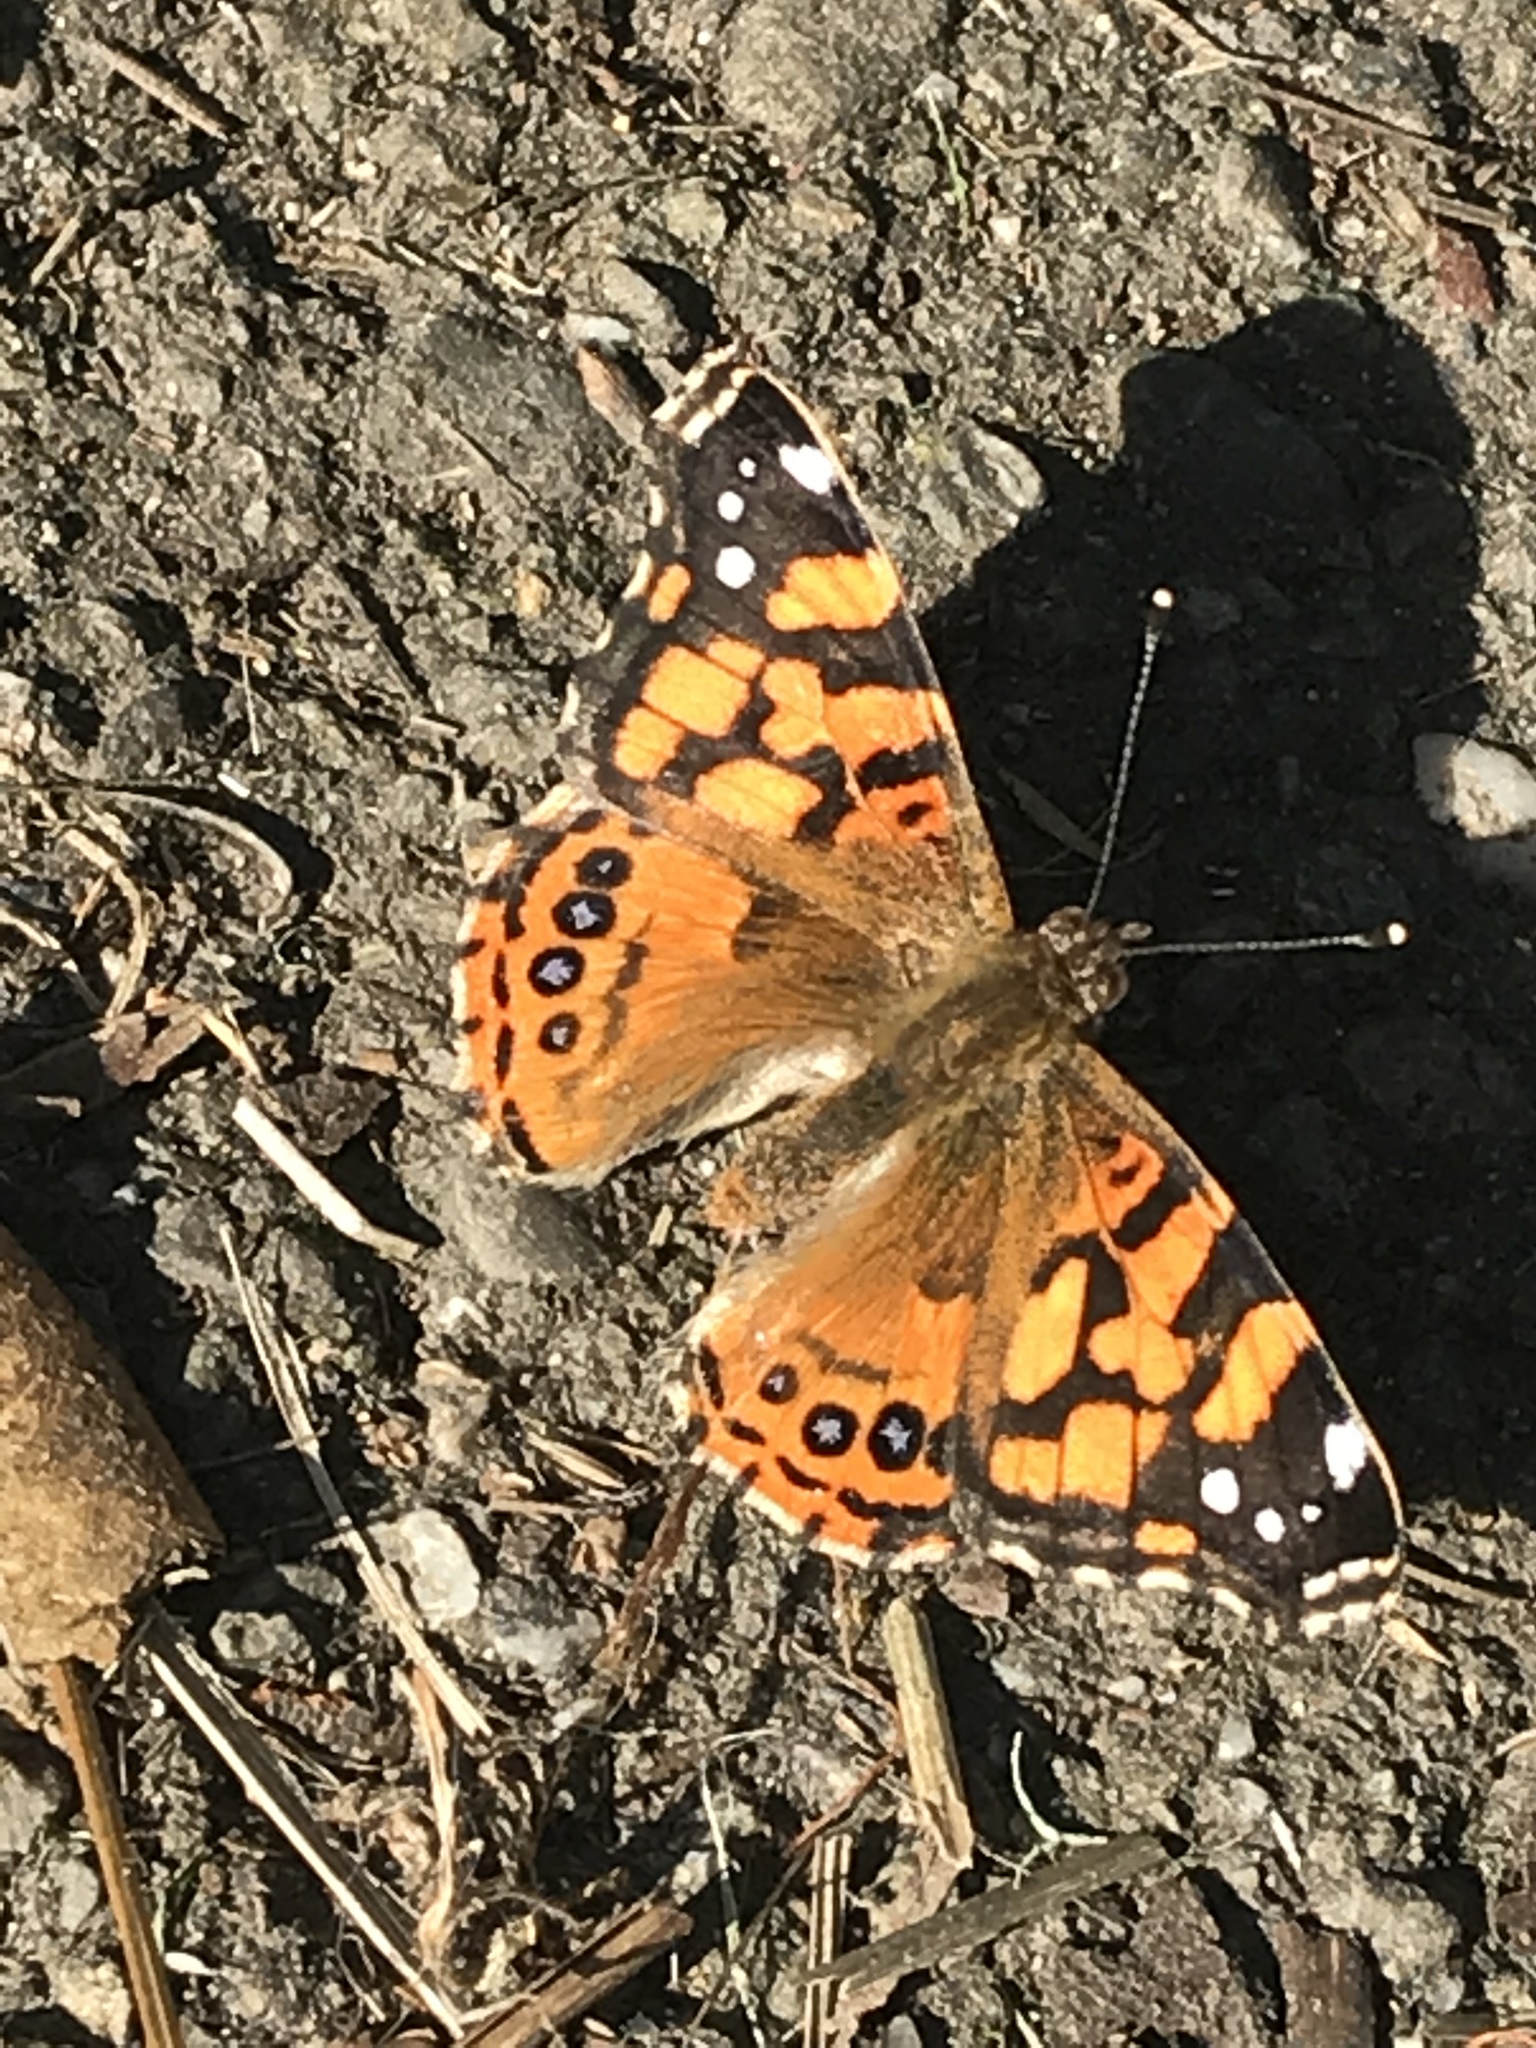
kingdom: Animalia
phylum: Arthropoda
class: Insecta
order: Lepidoptera
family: Nymphalidae
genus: Vanessa
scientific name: Vanessa annabella
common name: West coast lady
